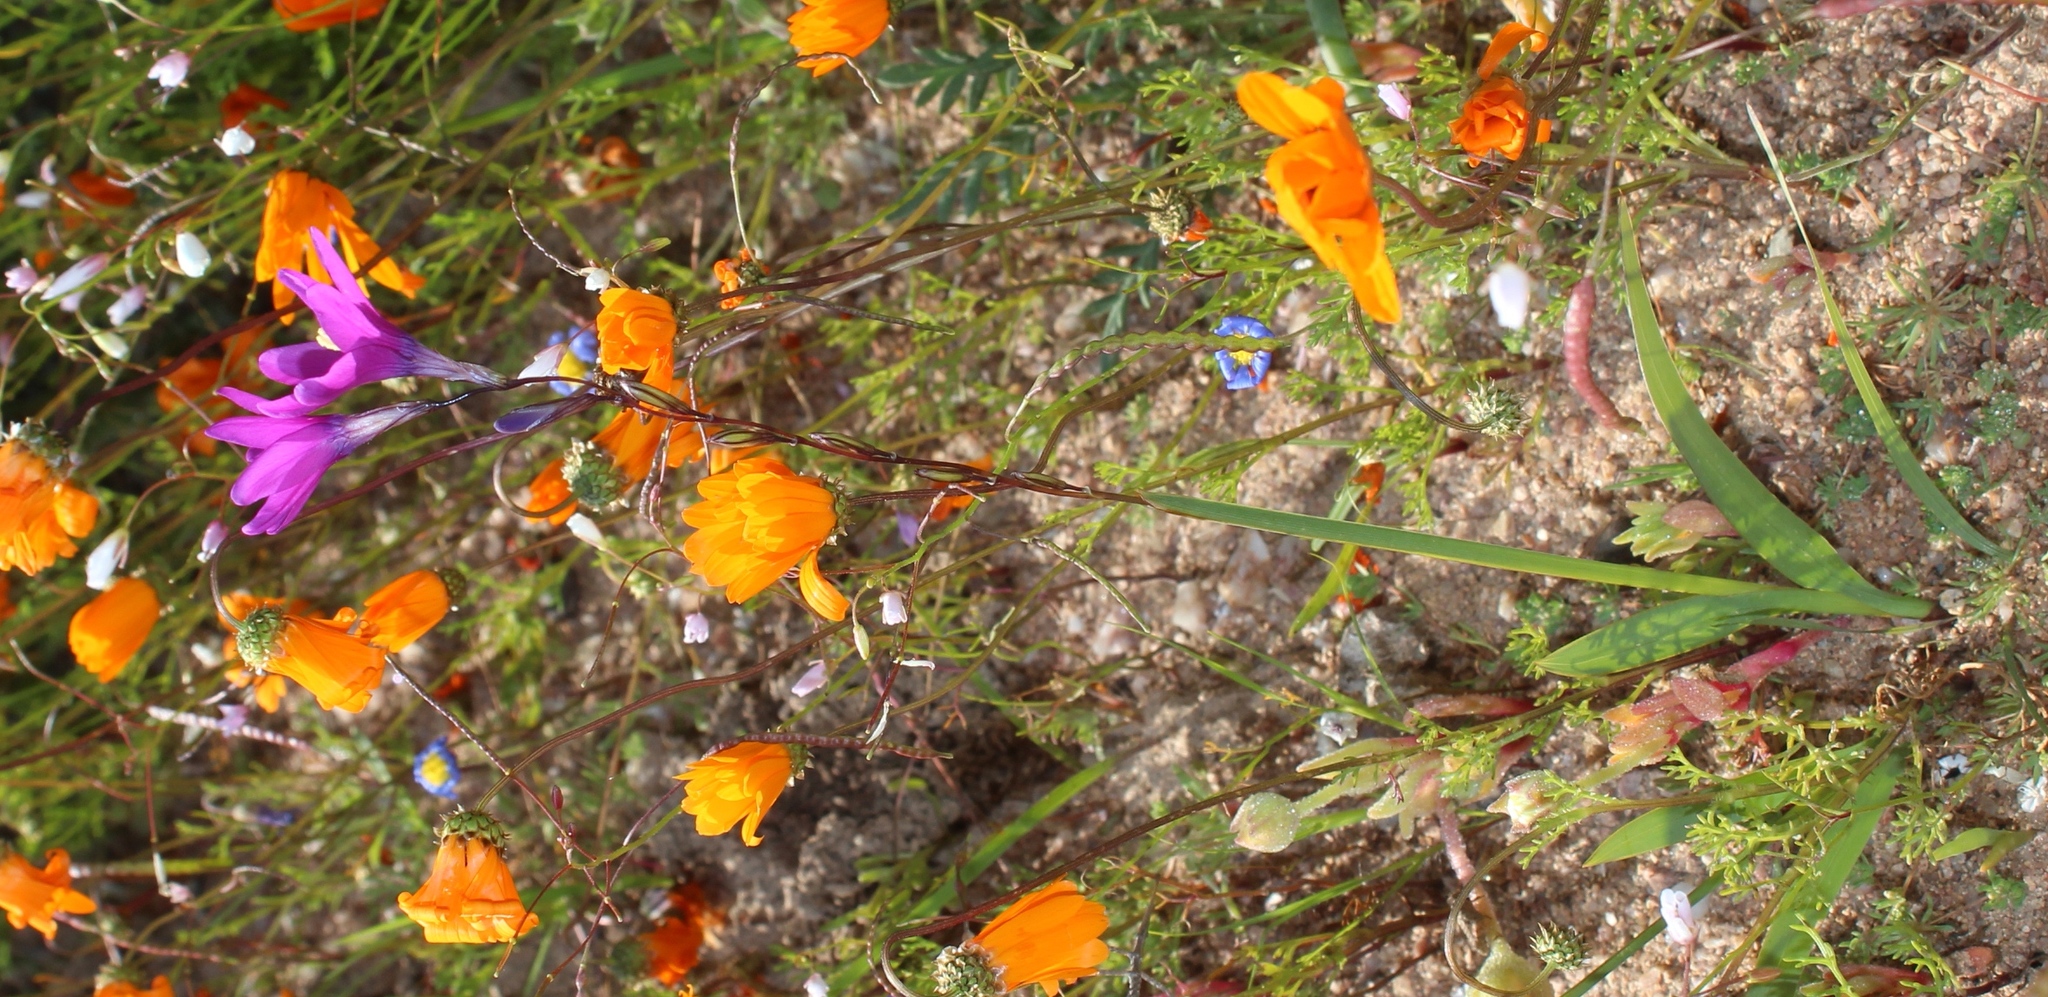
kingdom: Plantae
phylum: Tracheophyta
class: Liliopsida
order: Asparagales
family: Iridaceae
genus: Ixia
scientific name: Ixia ramulosa
